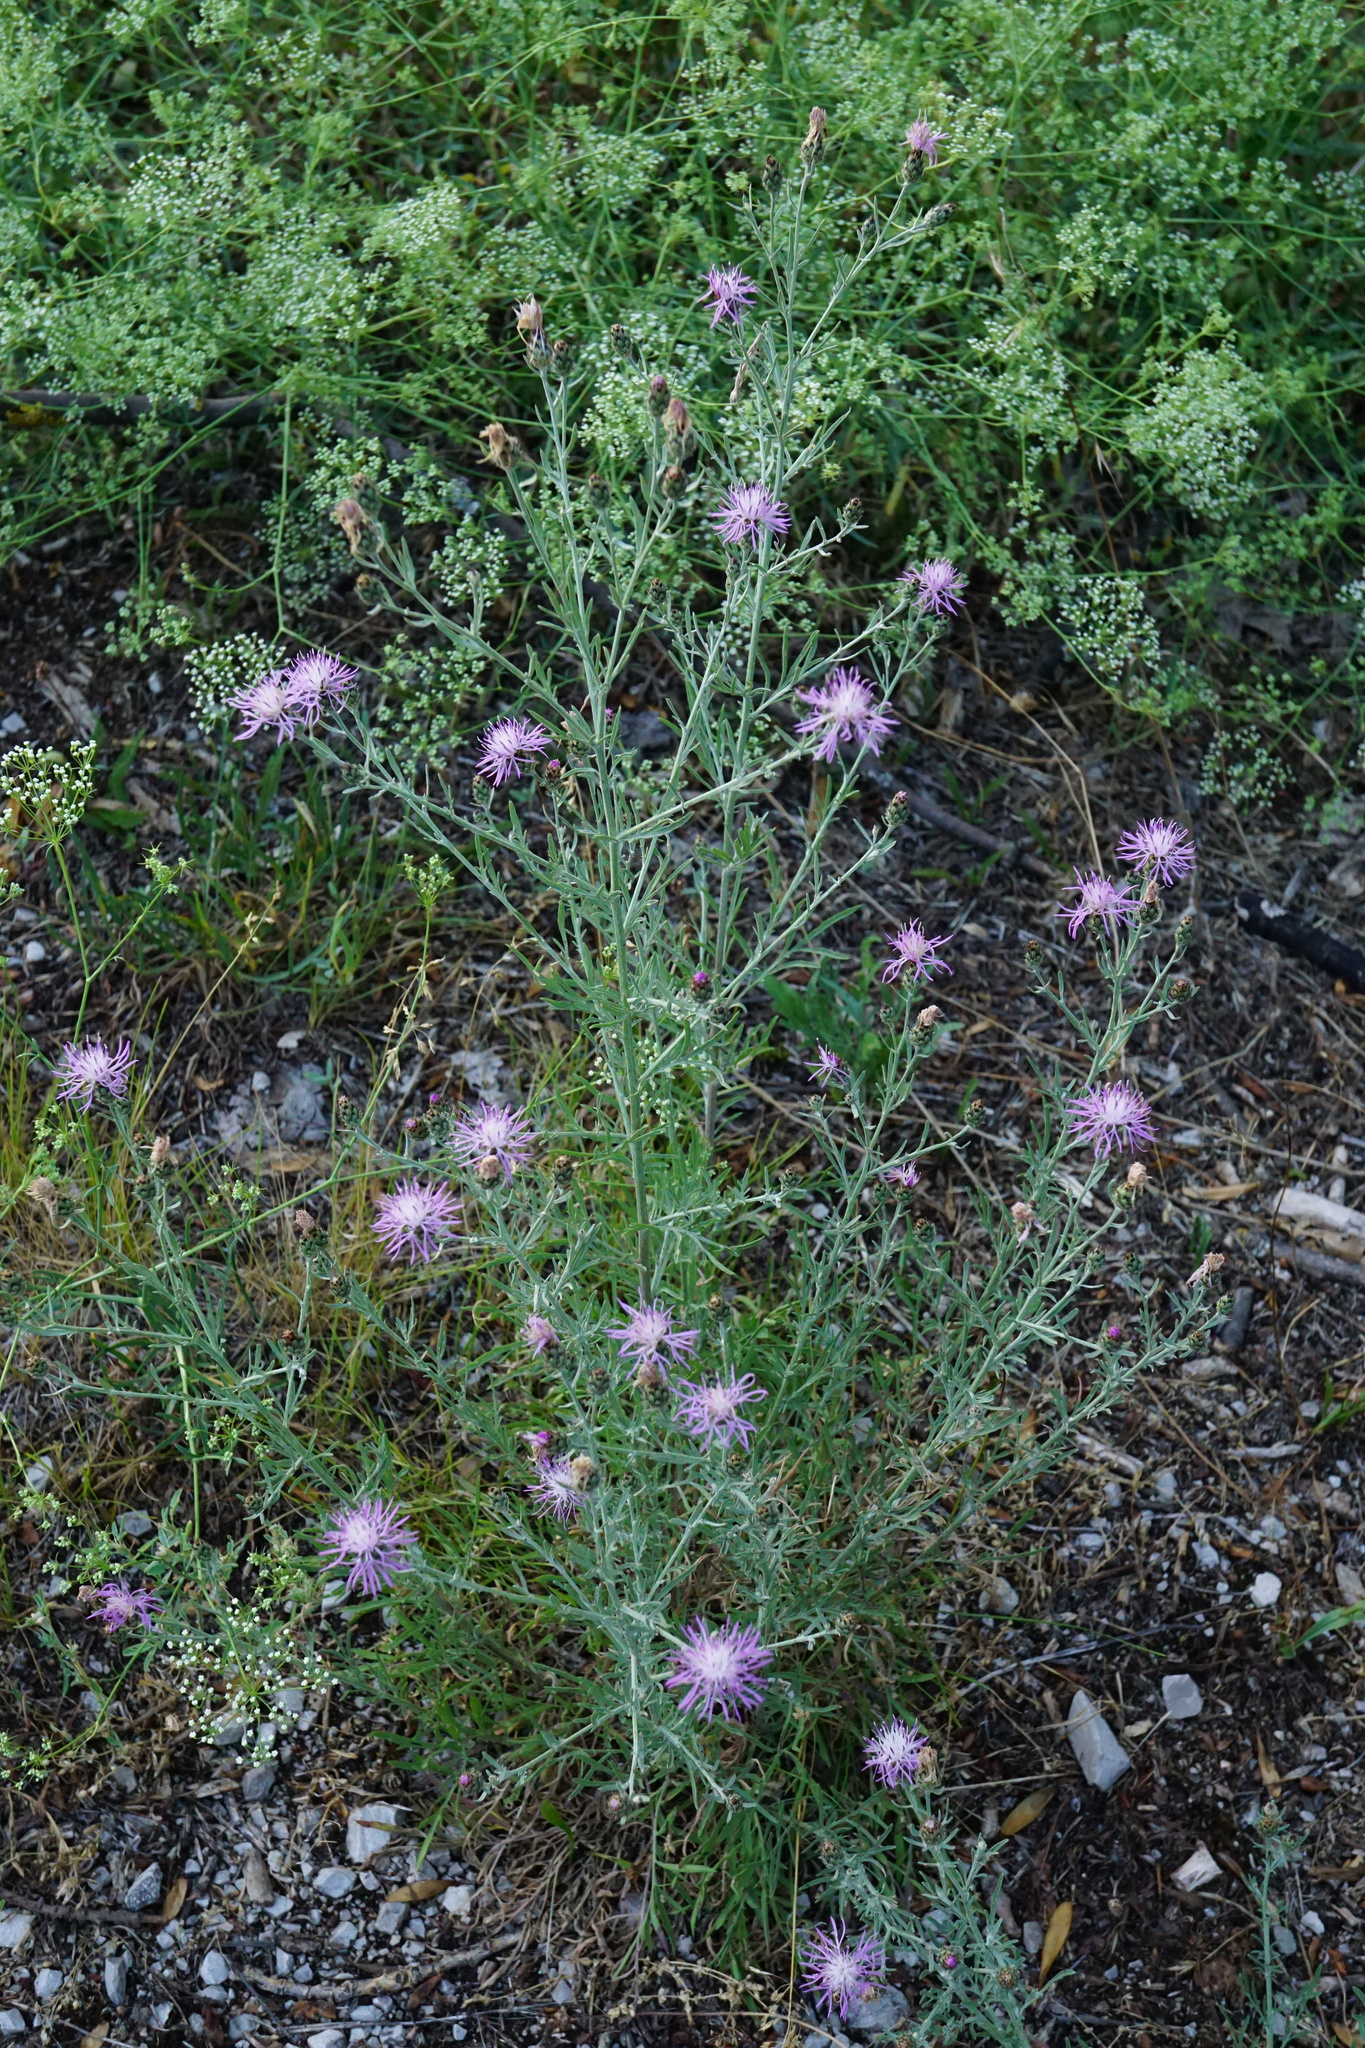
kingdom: Plantae
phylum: Tracheophyta
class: Magnoliopsida
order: Asterales
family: Asteraceae
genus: Centaurea
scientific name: Centaurea stoebe
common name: Spotted knapweed
